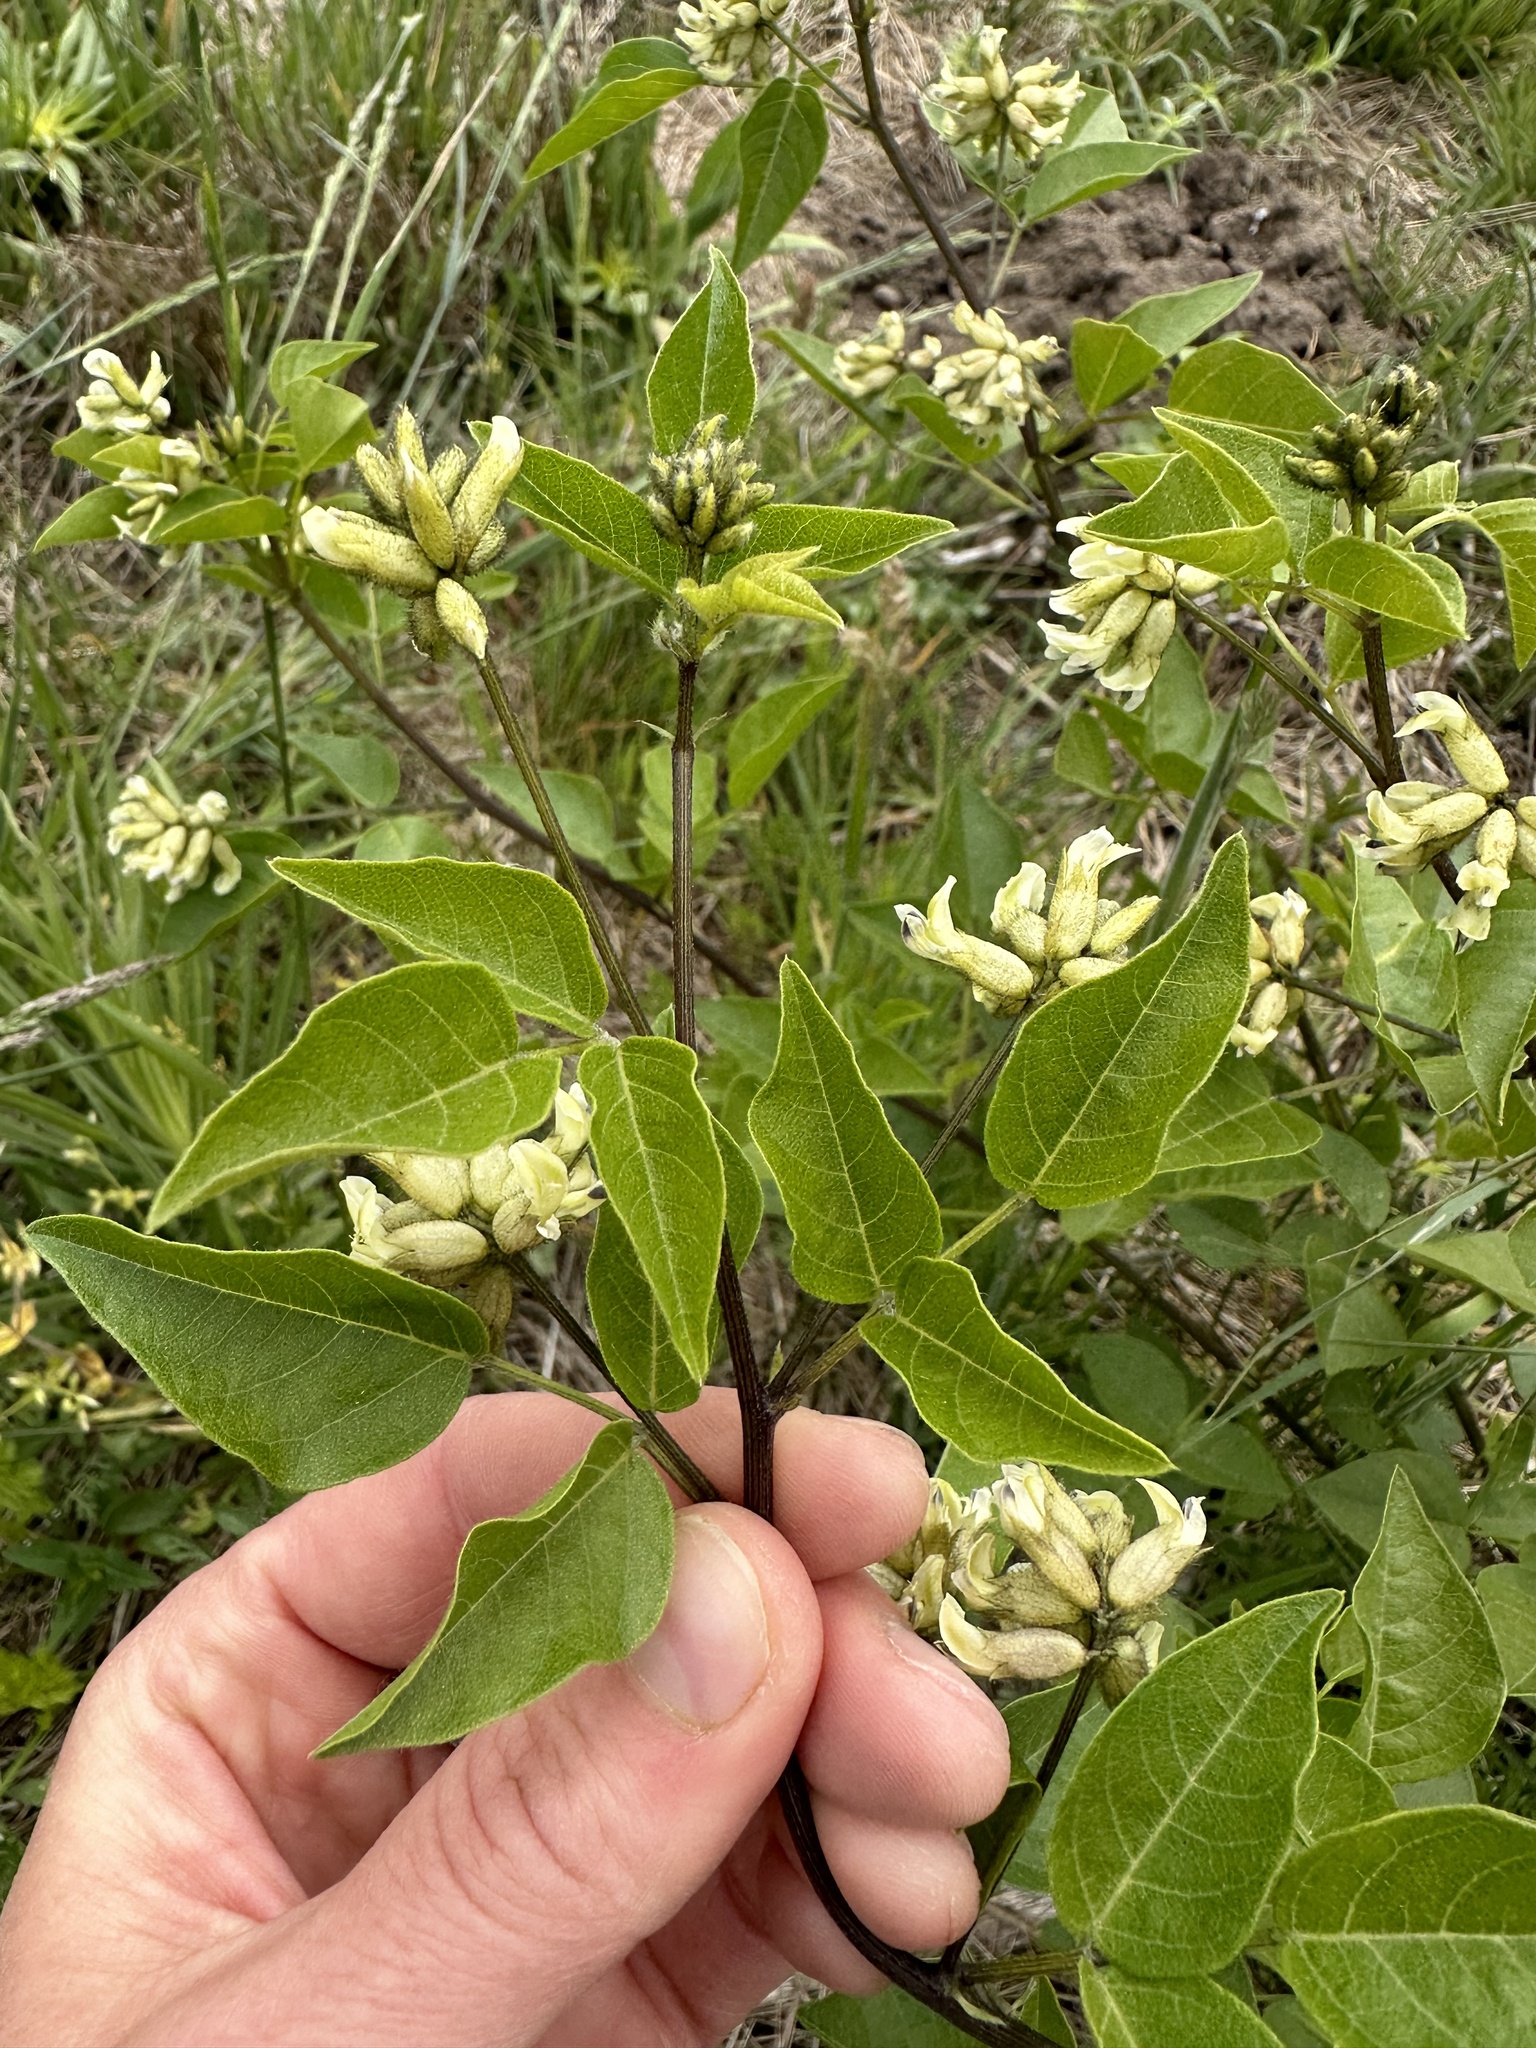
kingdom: Plantae
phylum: Tracheophyta
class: Magnoliopsida
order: Fabales
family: Fabaceae
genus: Rupertia
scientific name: Rupertia physodes
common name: California-tea
